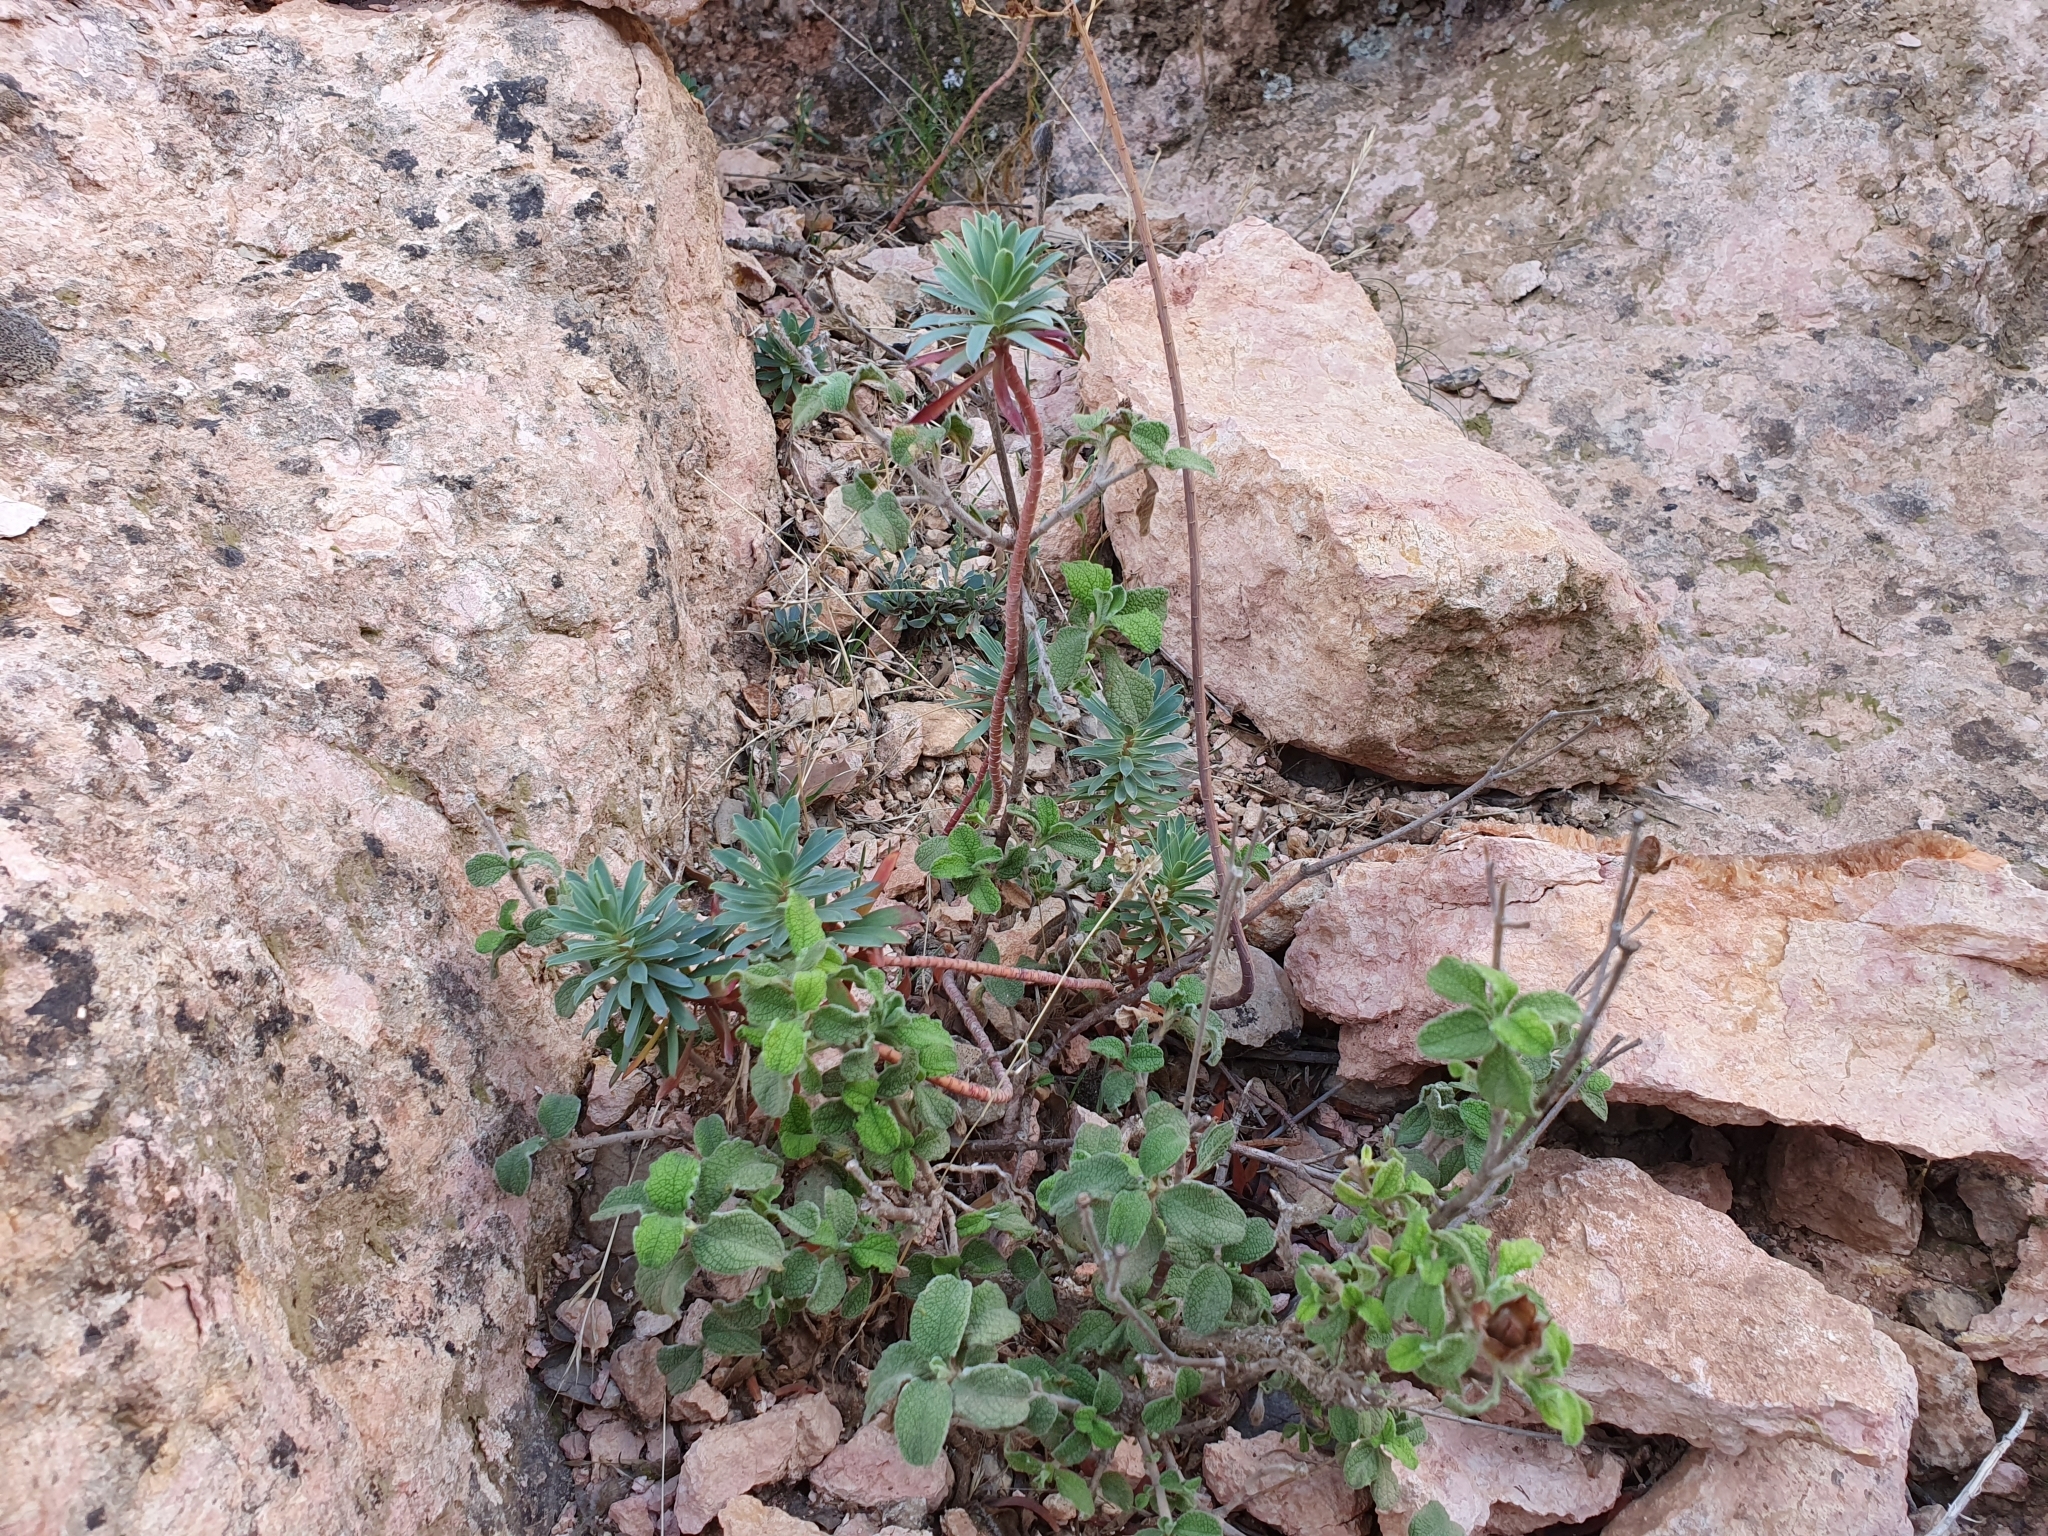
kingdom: Plantae
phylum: Tracheophyta
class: Magnoliopsida
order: Malpighiales
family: Euphorbiaceae
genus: Euphorbia
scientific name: Euphorbia nicaeensis
